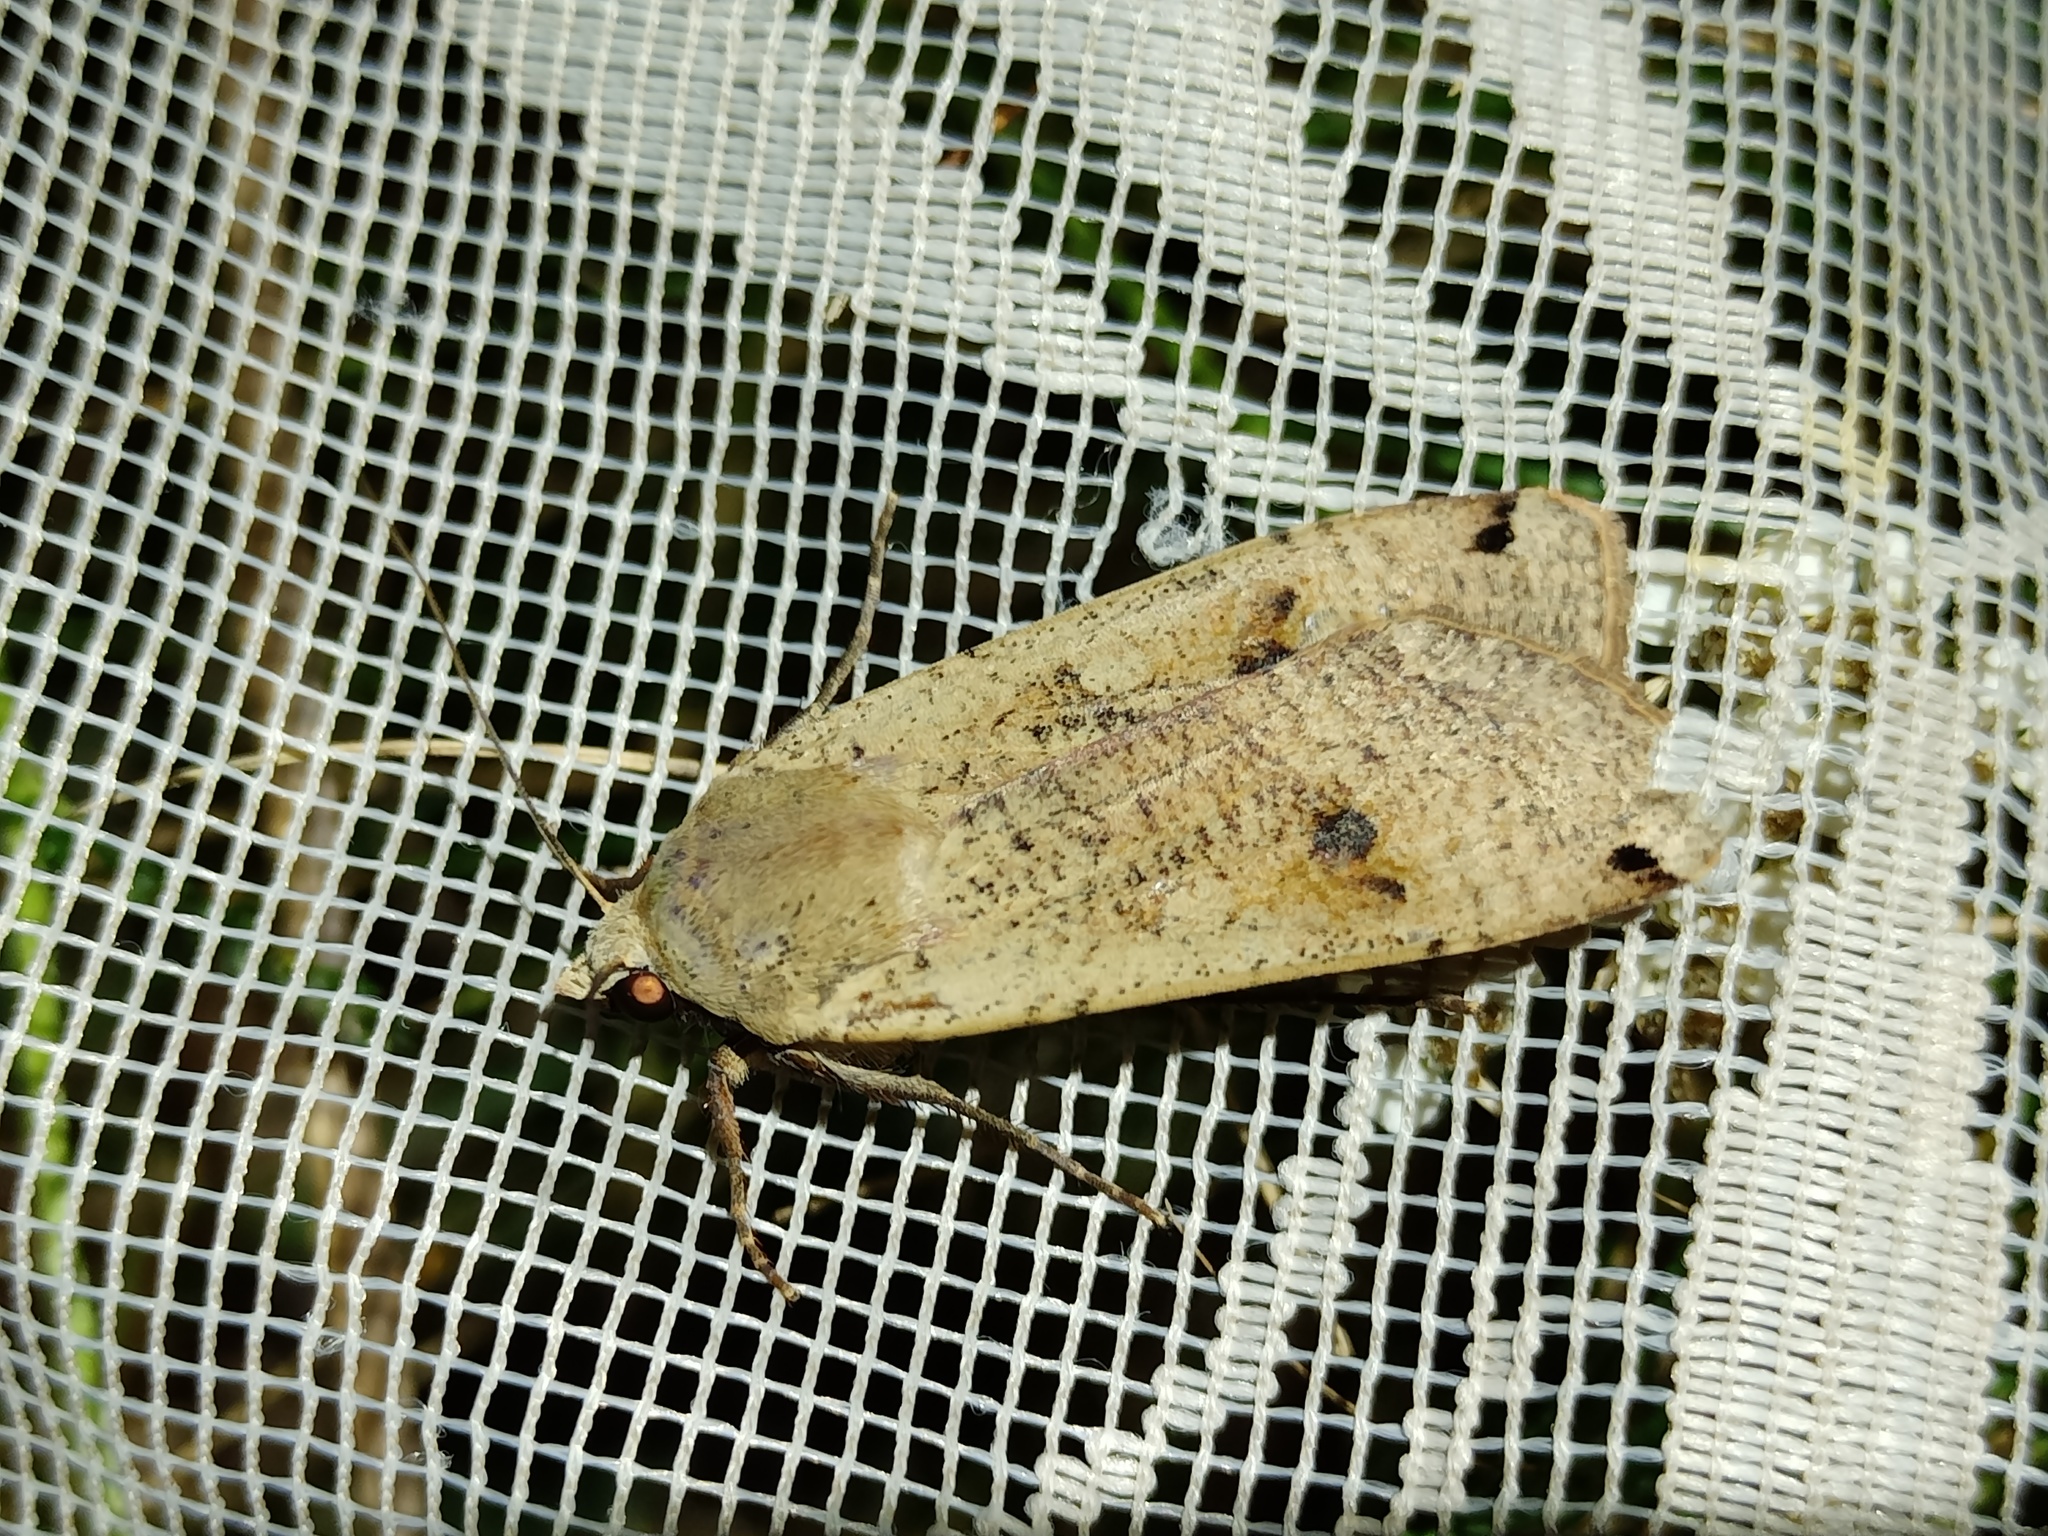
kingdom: Animalia
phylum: Arthropoda
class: Insecta
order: Lepidoptera
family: Noctuidae
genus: Noctua
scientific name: Noctua pronuba
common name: Large yellow underwing
